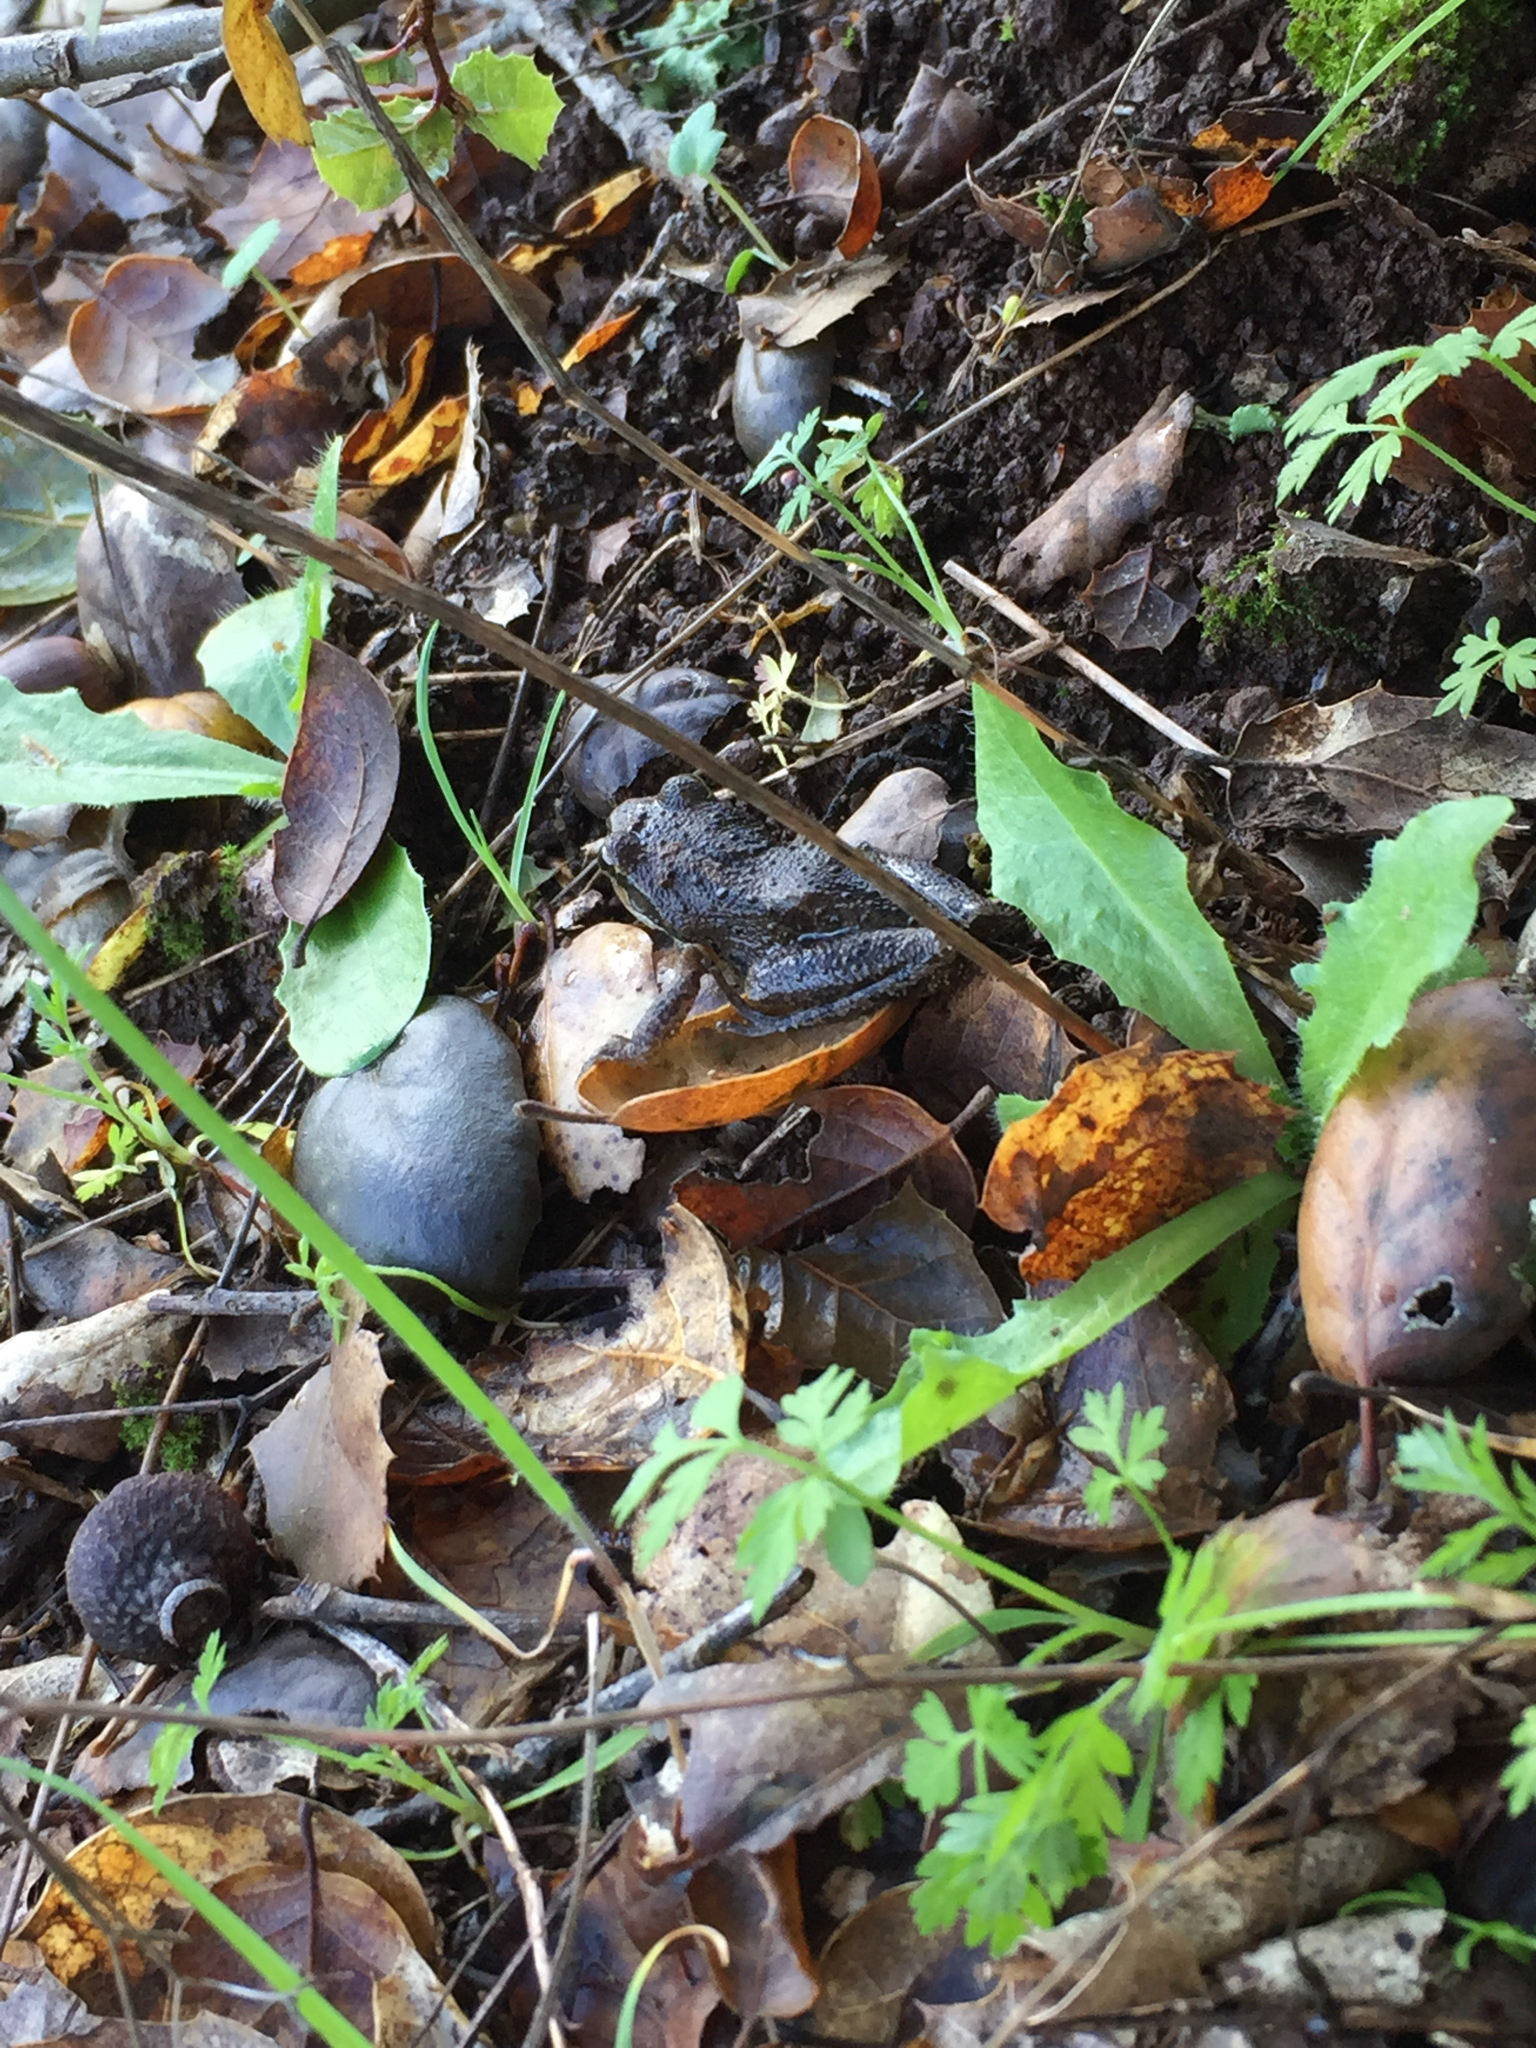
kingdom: Animalia
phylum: Chordata
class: Amphibia
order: Anura
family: Hylidae
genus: Pseudacris
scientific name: Pseudacris regilla
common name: Pacific chorus frog
